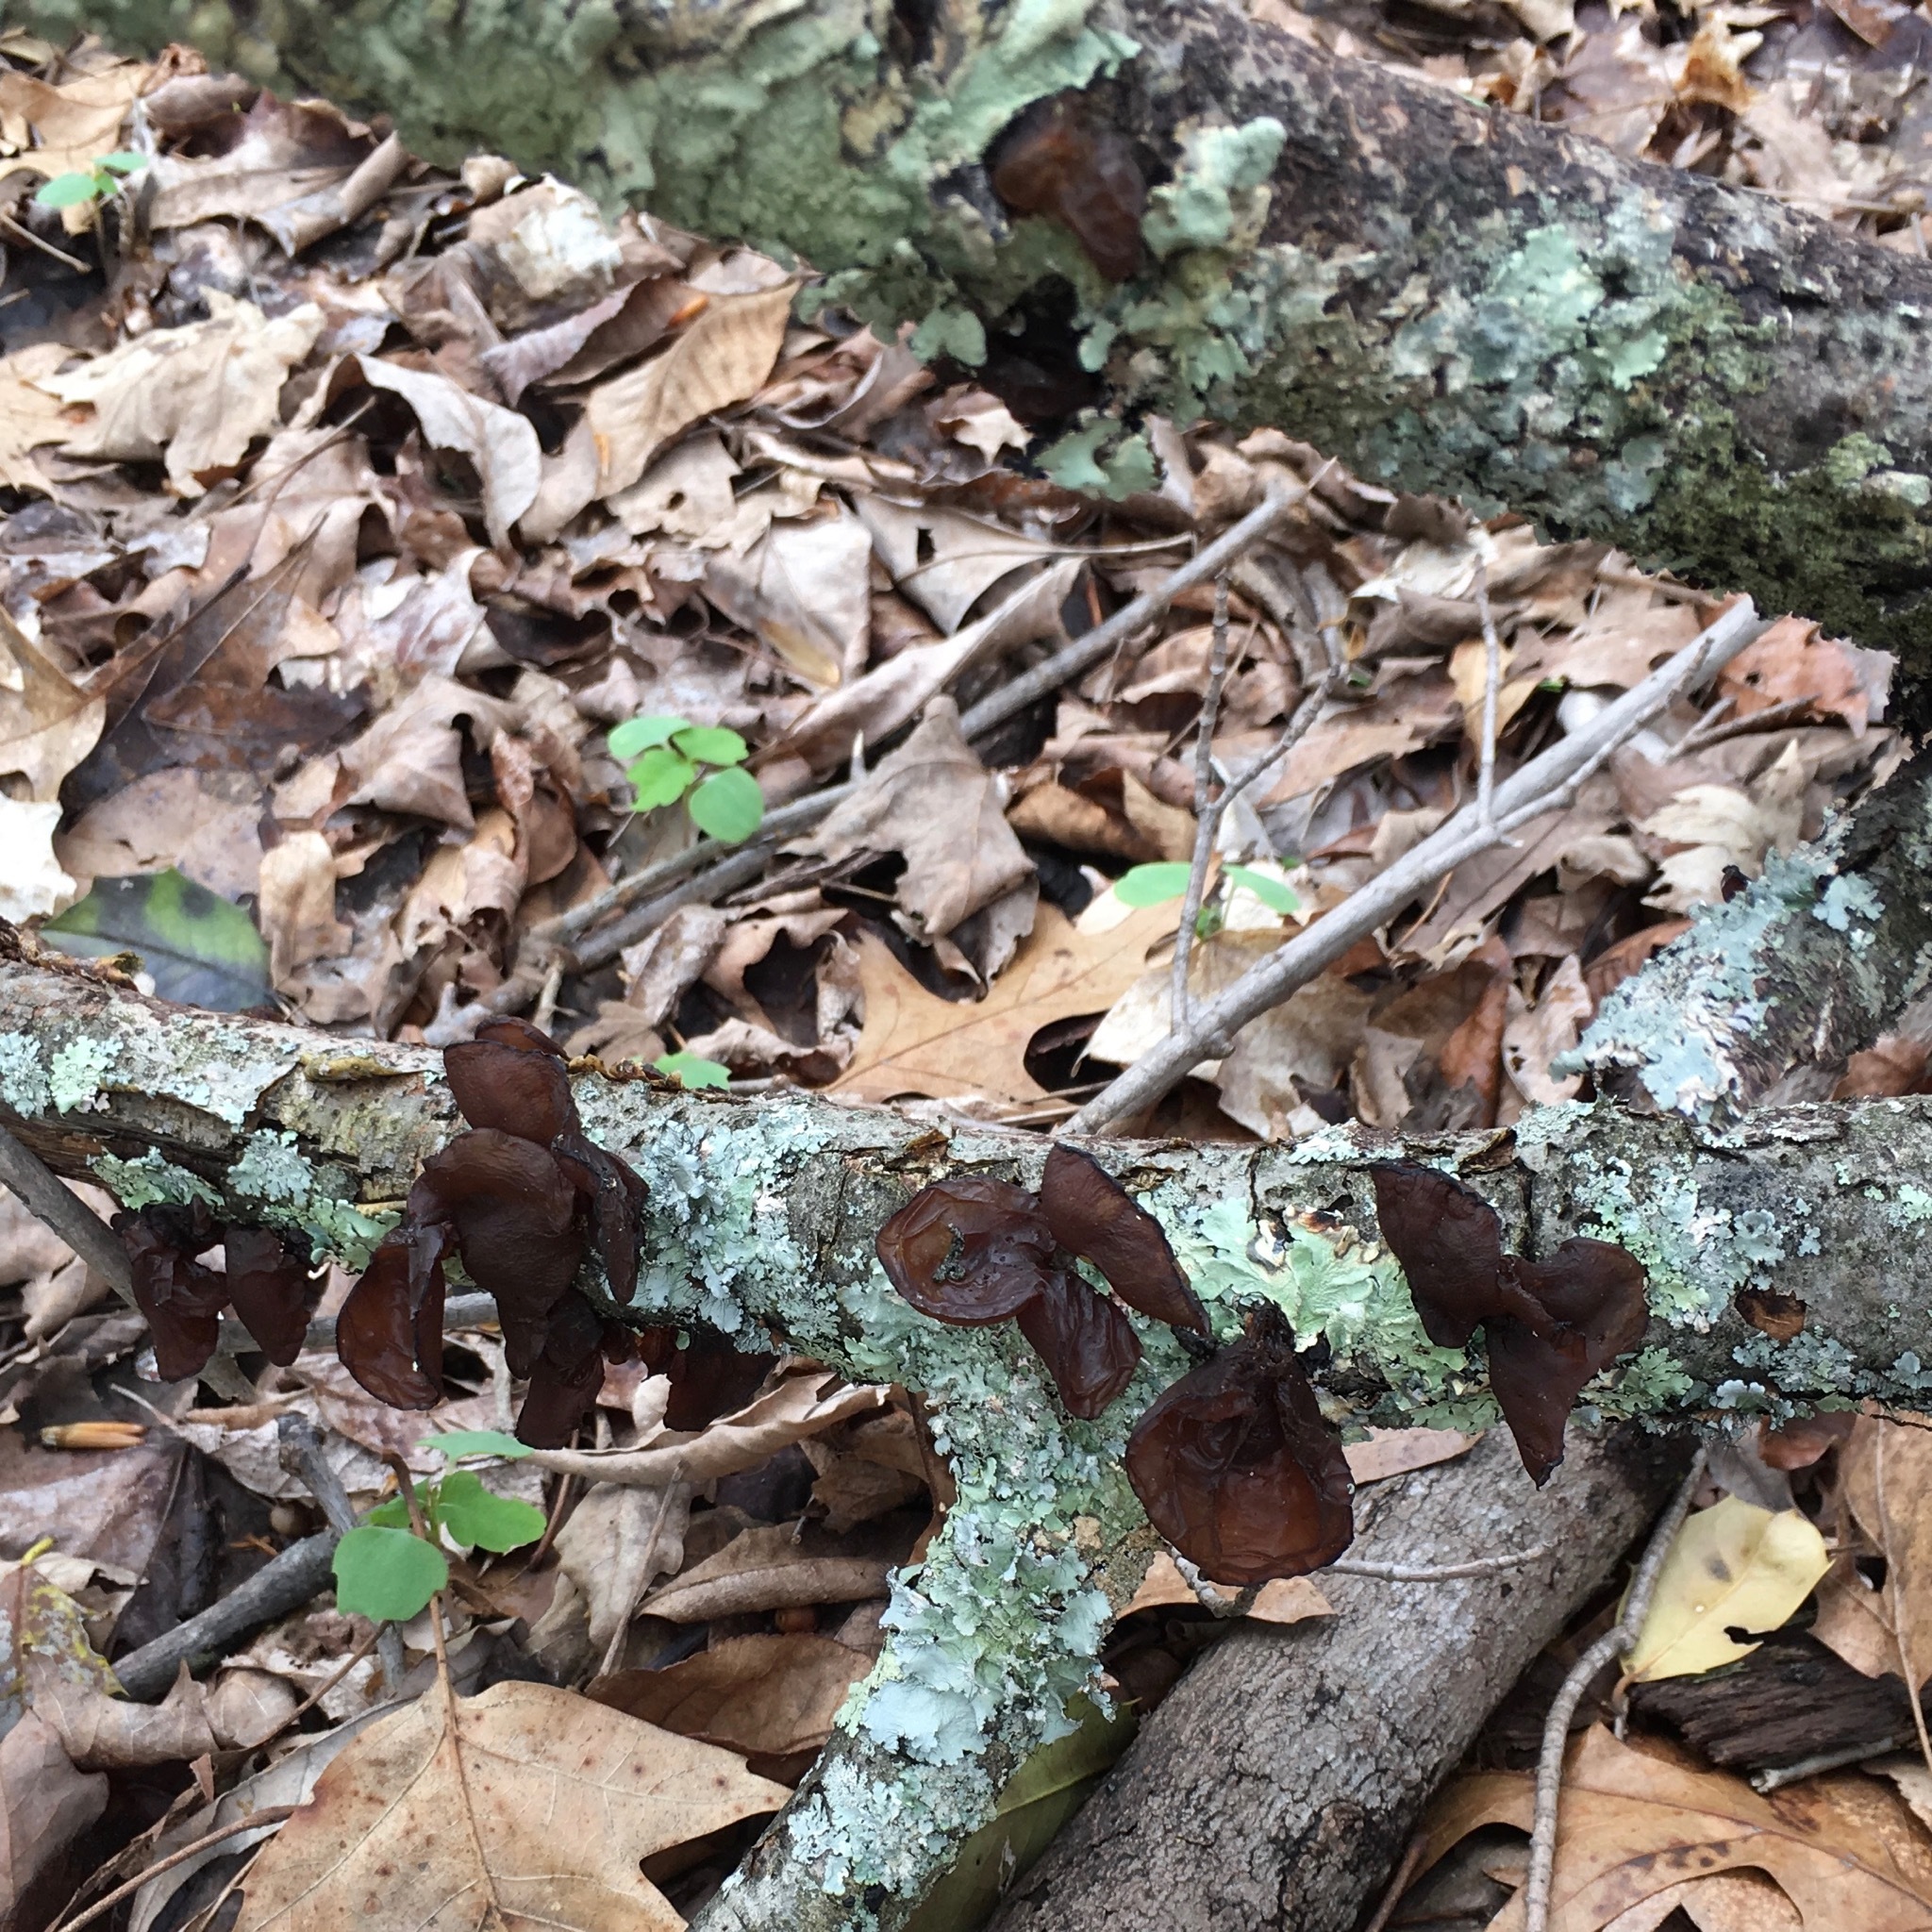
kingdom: Fungi
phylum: Basidiomycota
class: Agaricomycetes
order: Auriculariales
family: Auriculariaceae
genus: Exidia
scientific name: Exidia
